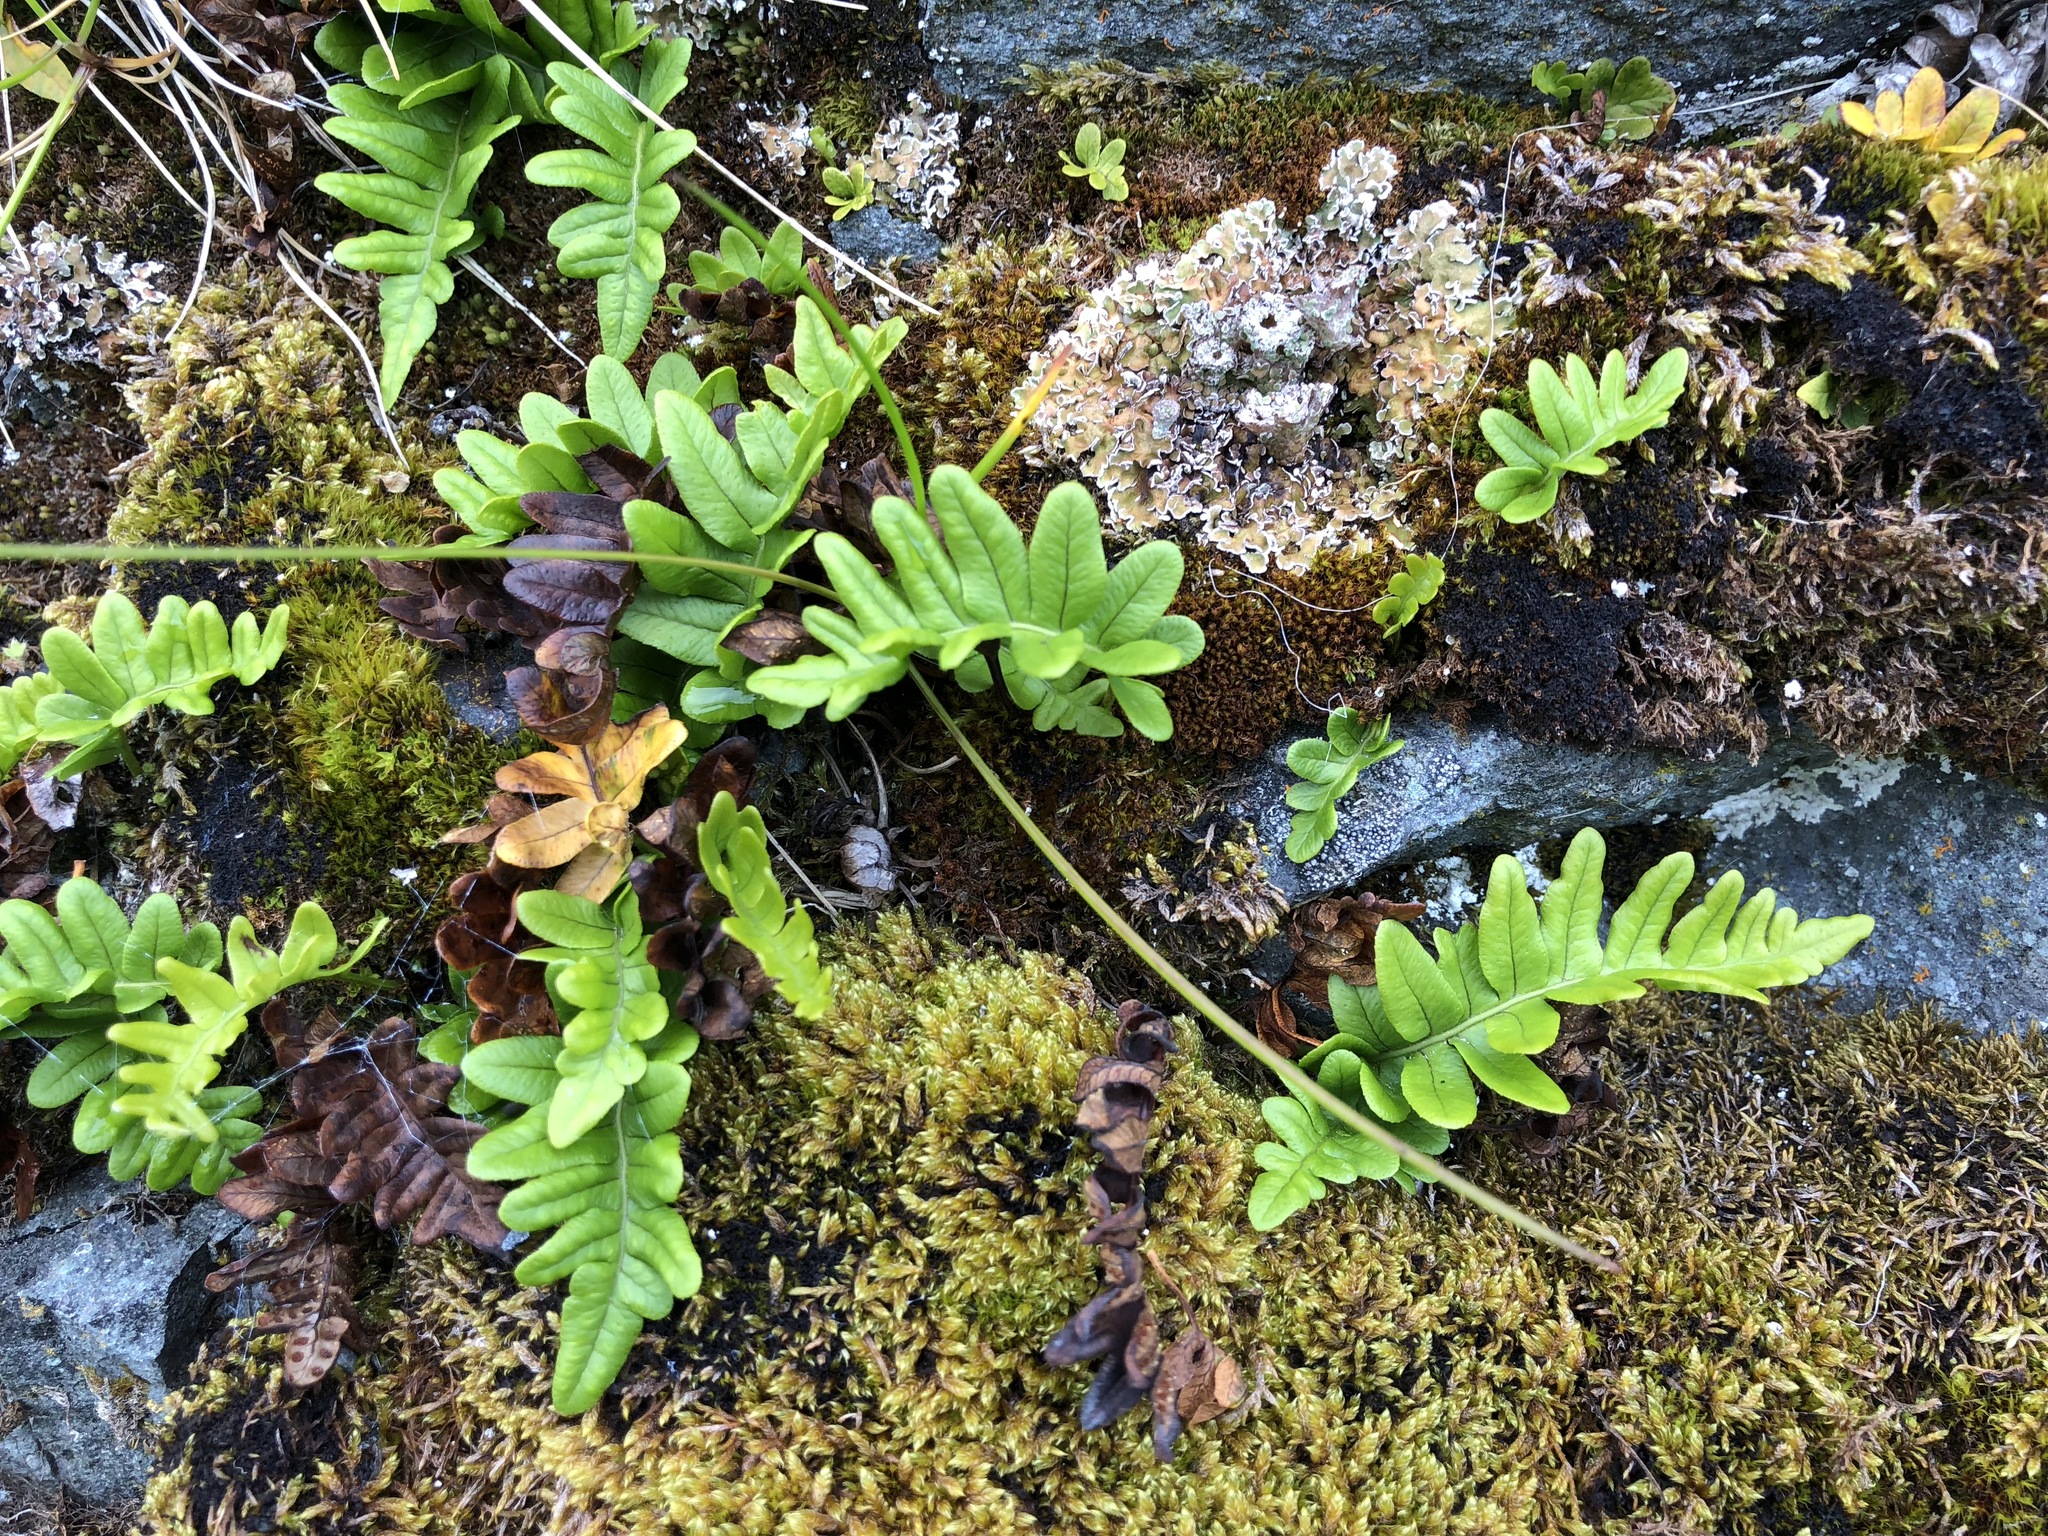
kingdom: Plantae
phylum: Tracheophyta
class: Polypodiopsida
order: Polypodiales
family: Polypodiaceae
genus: Polypodium
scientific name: Polypodium glycyrrhiza
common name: Licorice fern
